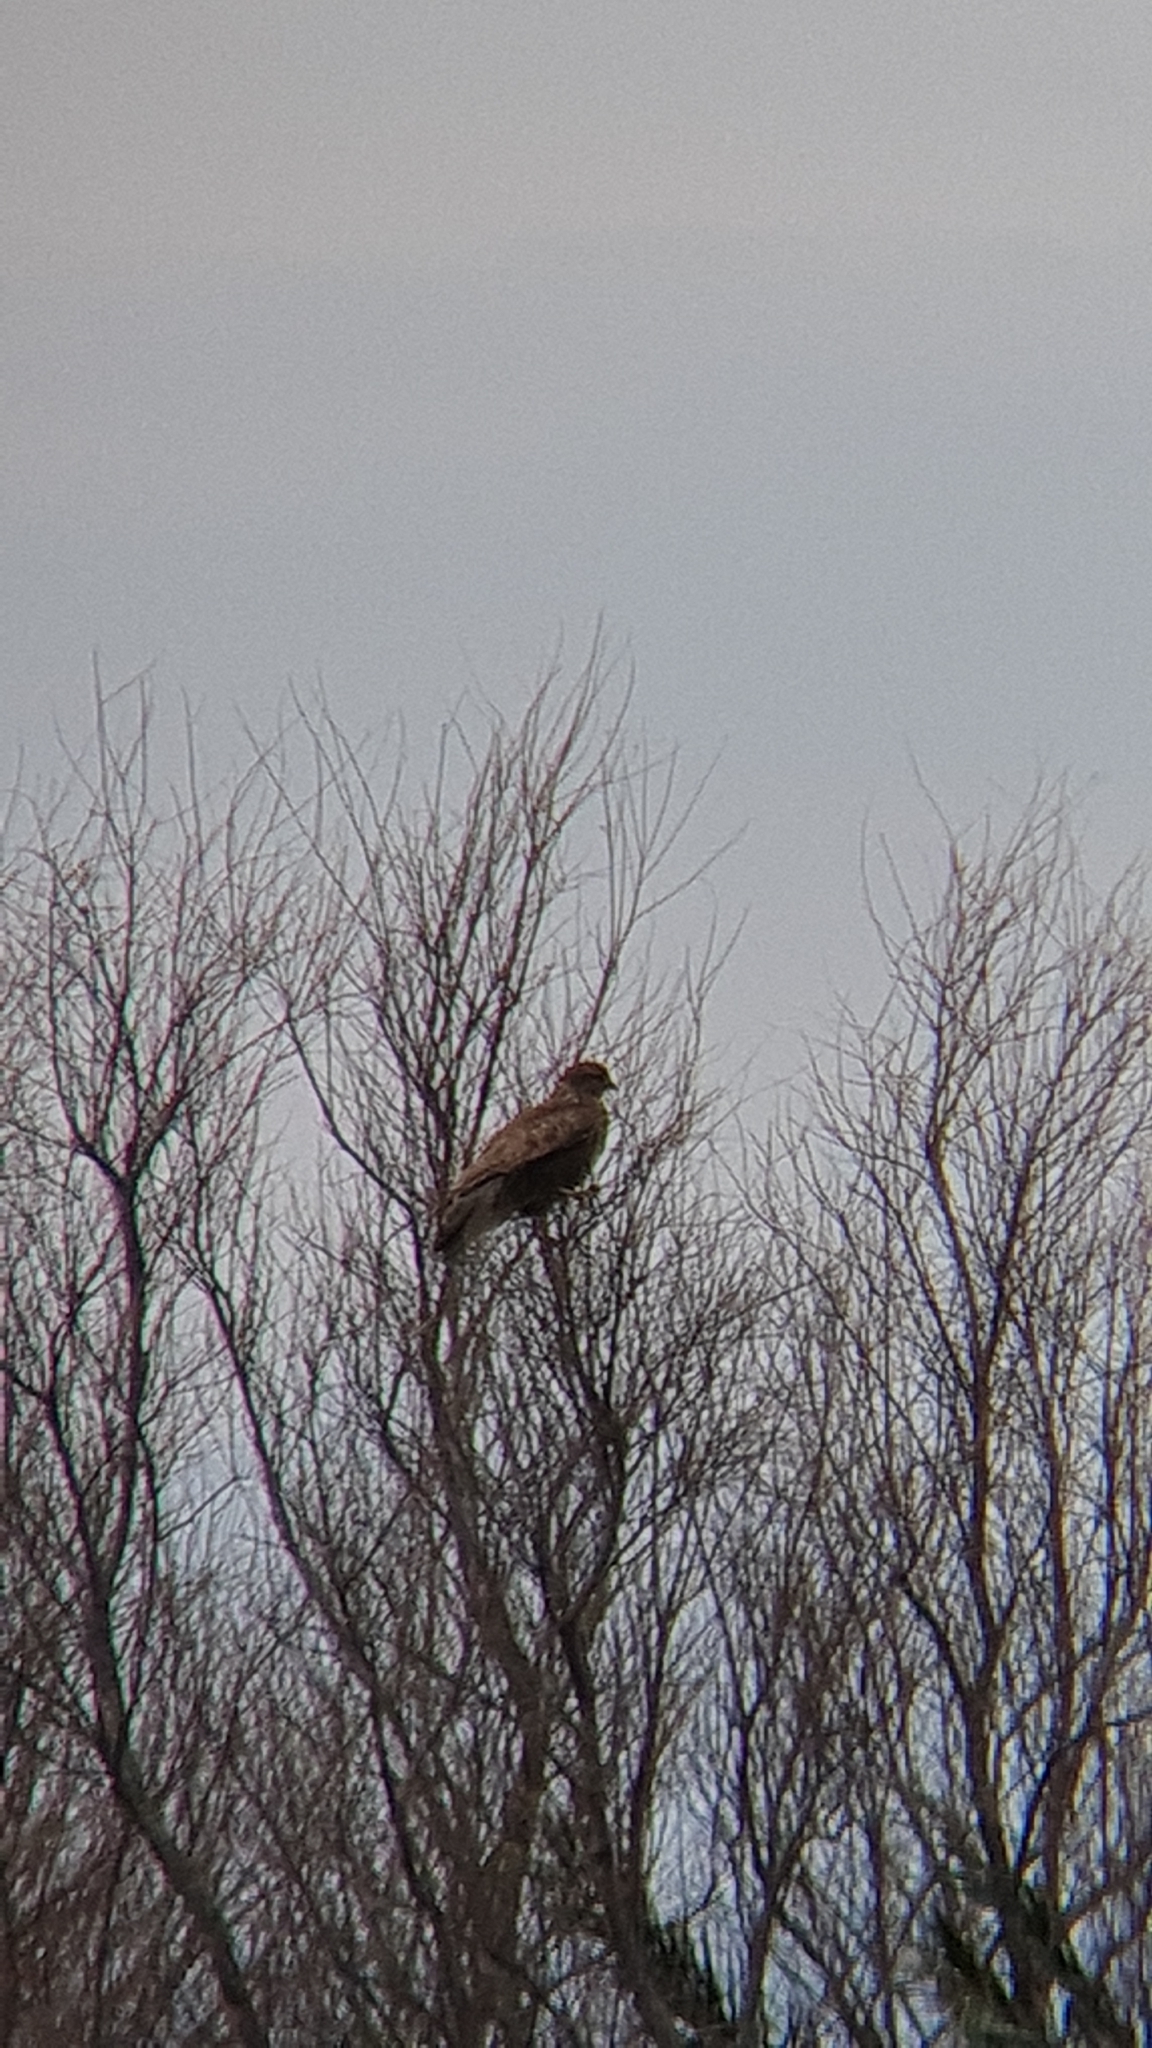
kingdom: Animalia
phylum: Chordata
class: Aves
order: Accipitriformes
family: Accipitridae
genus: Buteo
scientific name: Buteo buteo
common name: Common buzzard
